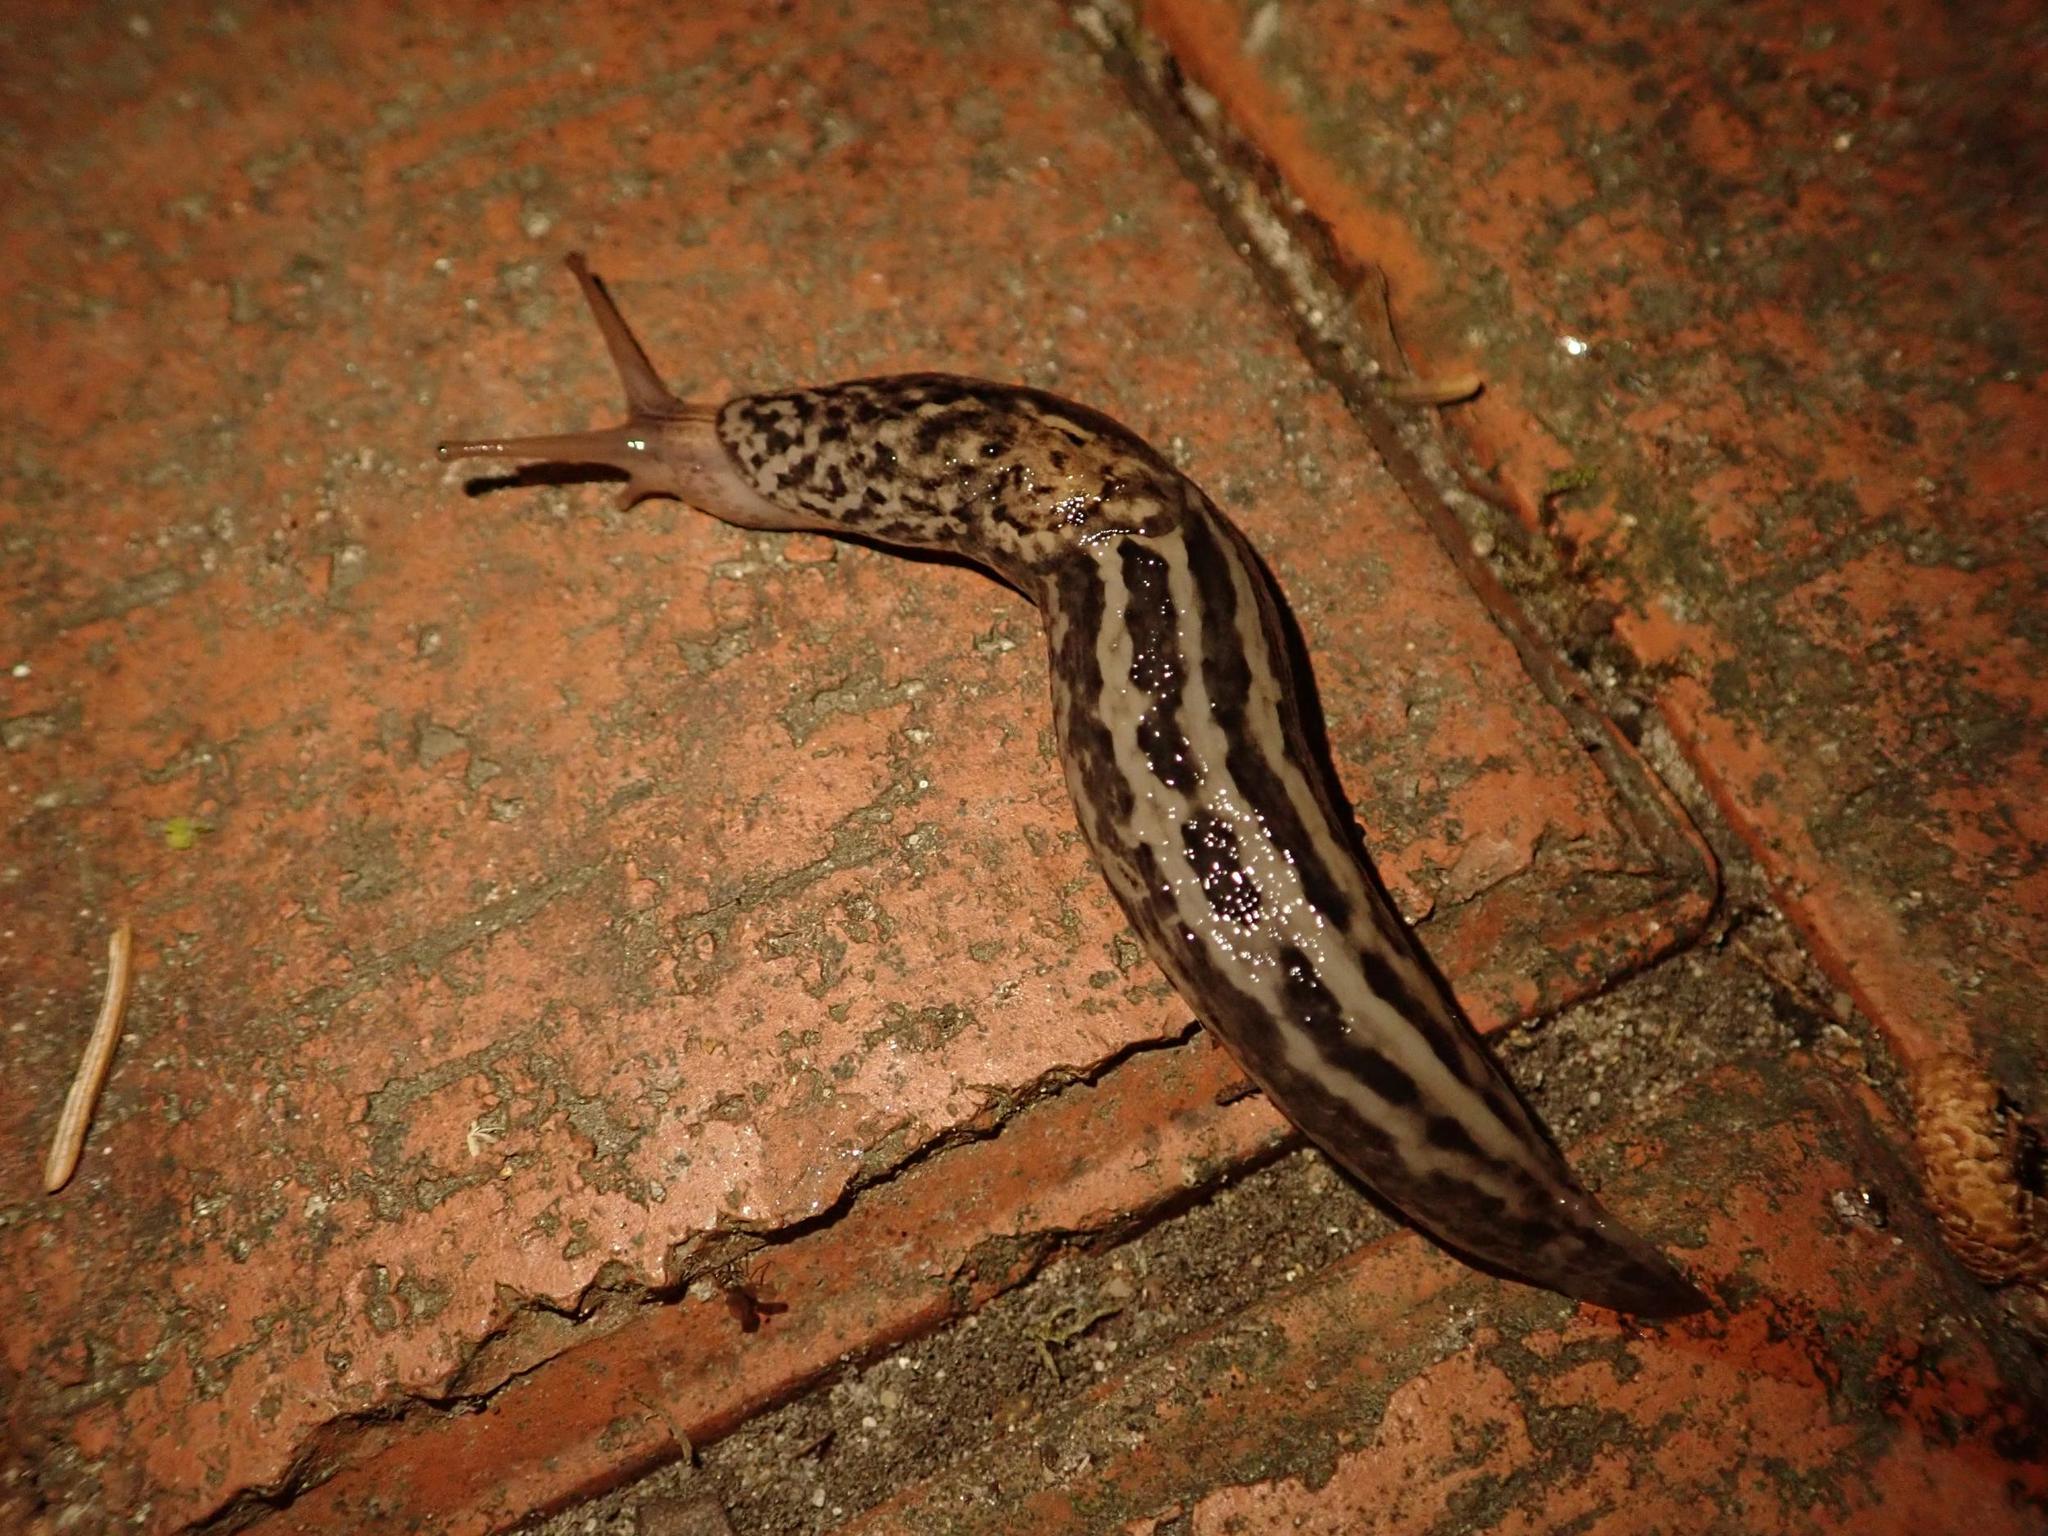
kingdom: Animalia
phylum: Mollusca
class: Gastropoda
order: Stylommatophora
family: Limacidae
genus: Limax
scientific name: Limax maximus
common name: Great grey slug
